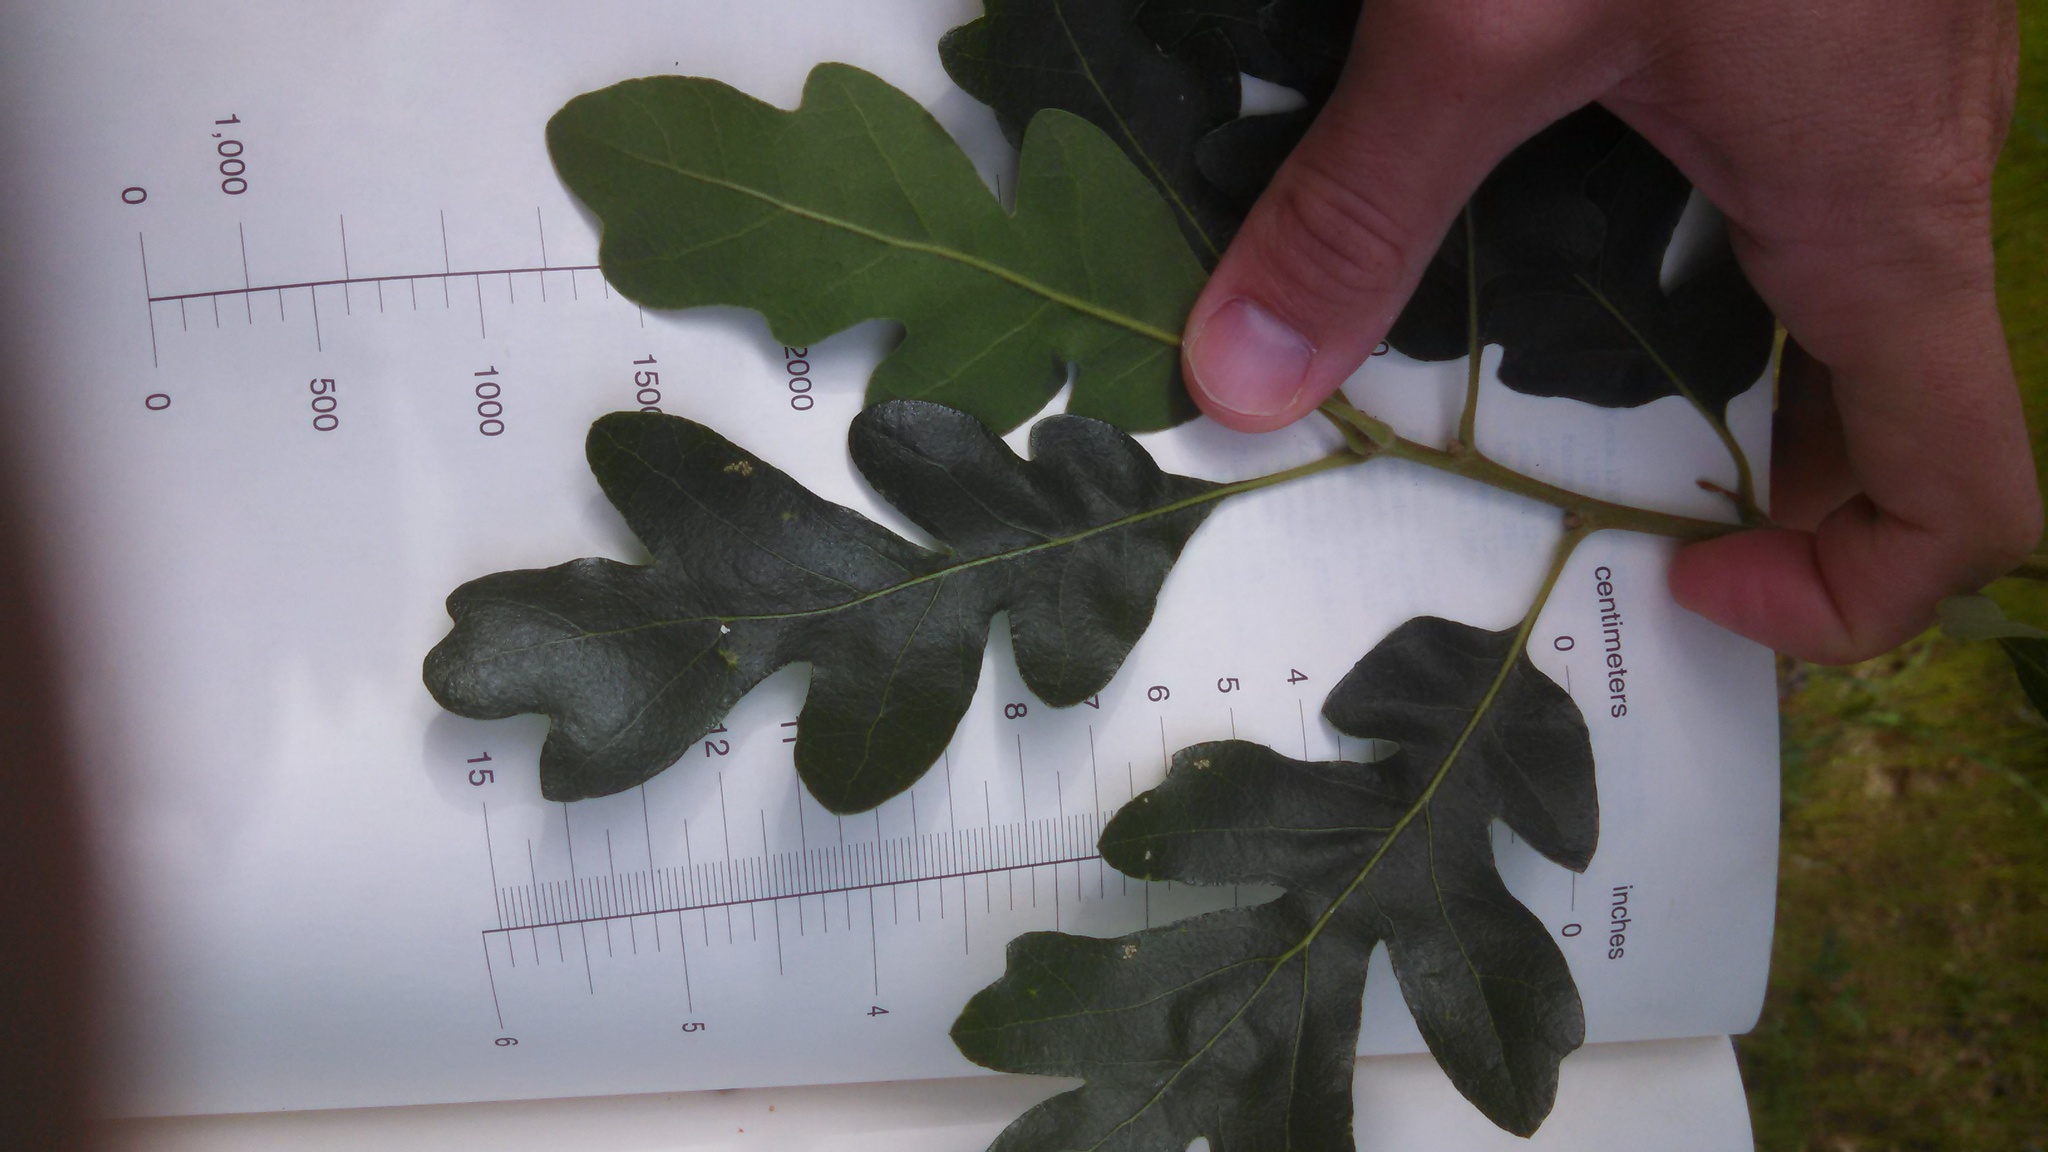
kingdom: Plantae
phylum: Tracheophyta
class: Magnoliopsida
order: Fagales
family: Fagaceae
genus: Quercus
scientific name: Quercus lobata
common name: Valley oak
